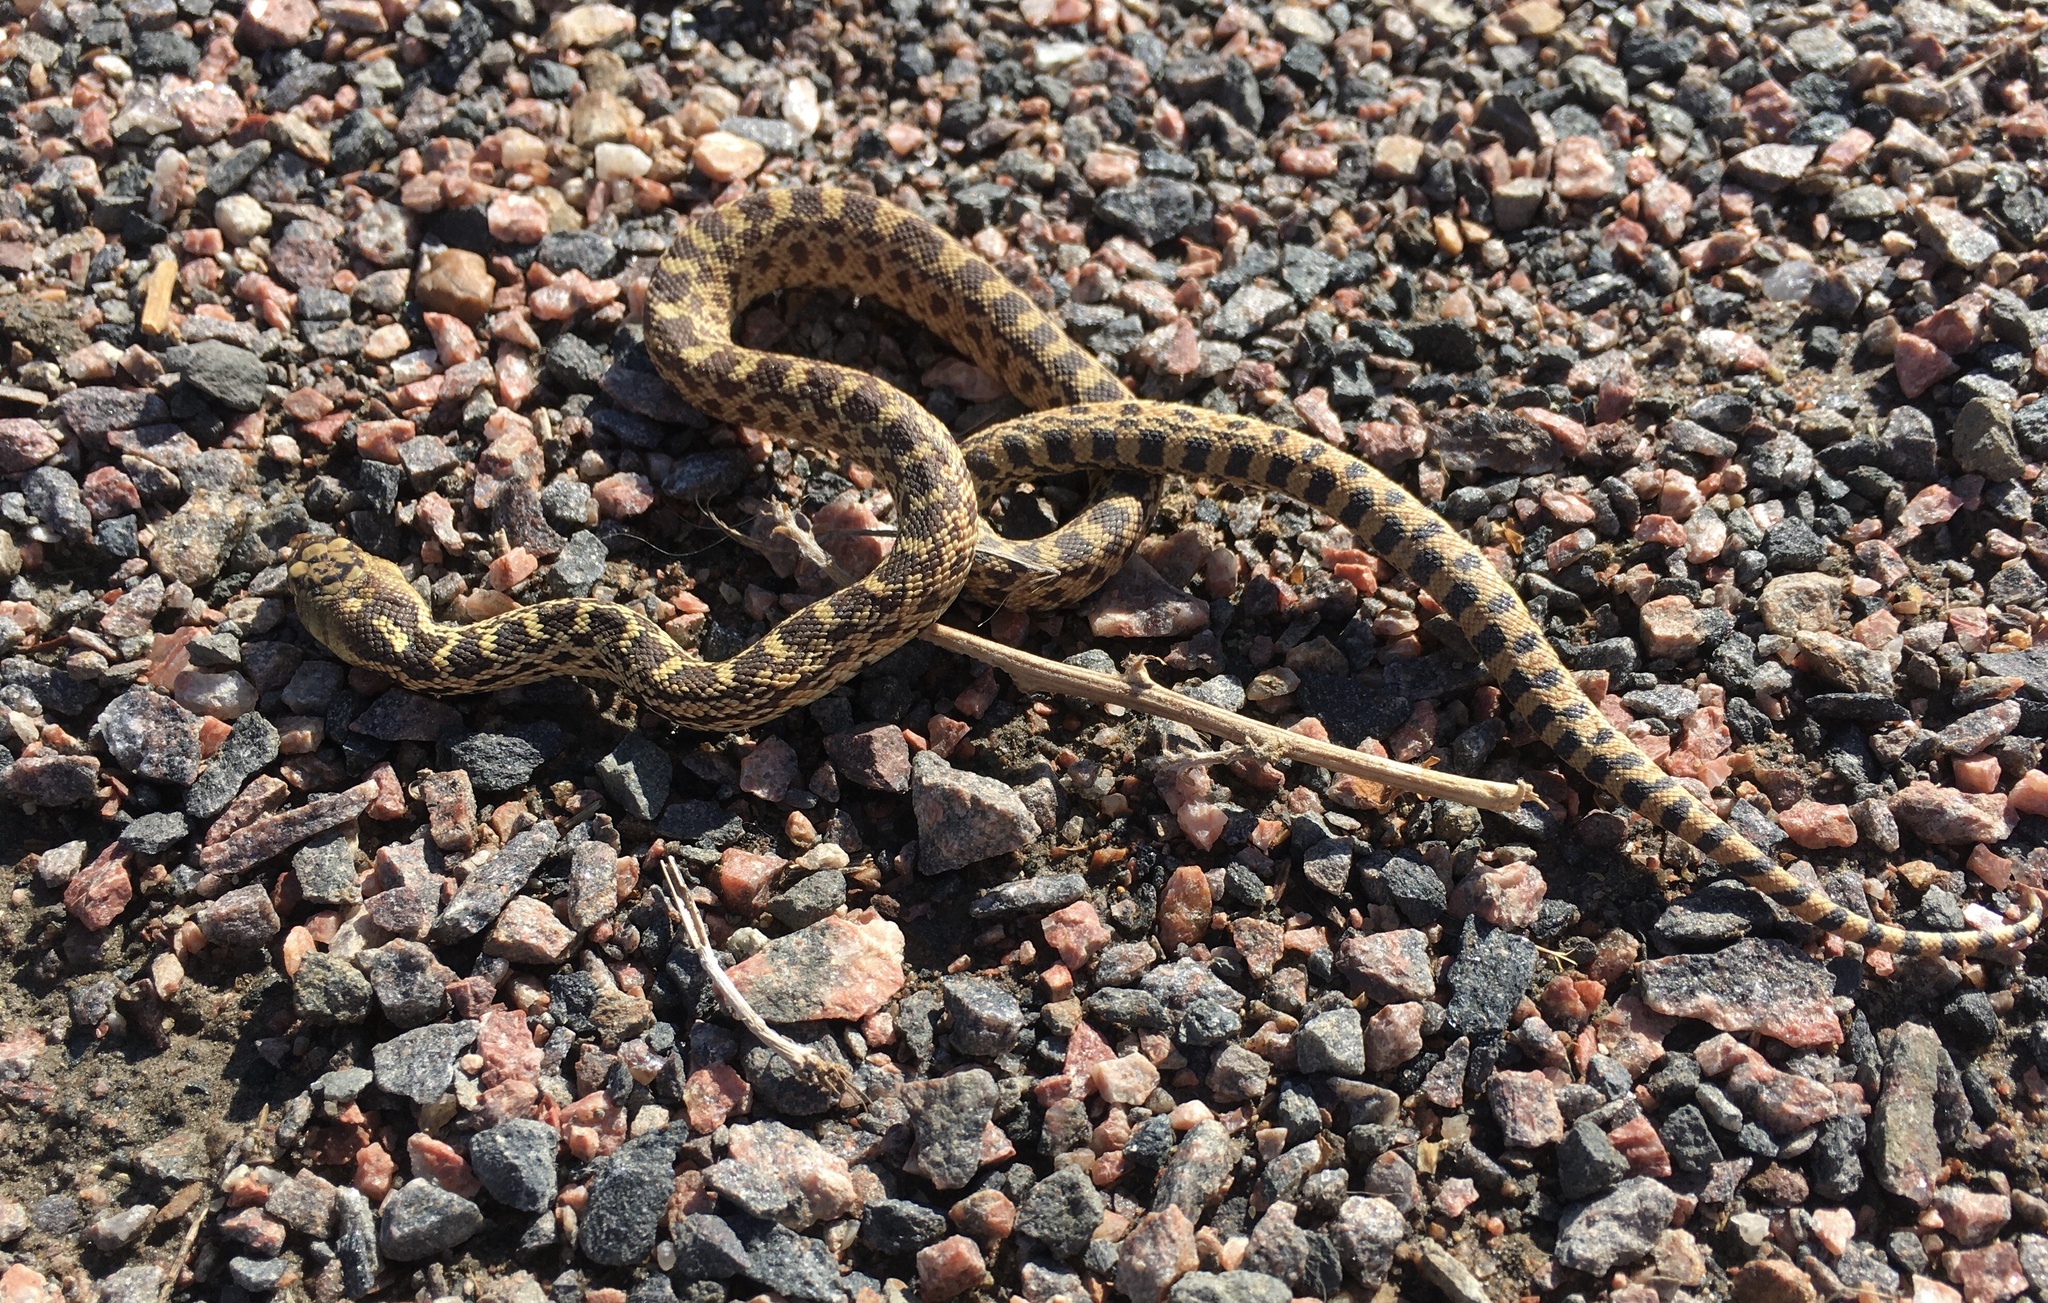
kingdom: Animalia
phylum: Chordata
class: Squamata
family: Colubridae
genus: Pituophis
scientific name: Pituophis catenifer
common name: Gopher snake
